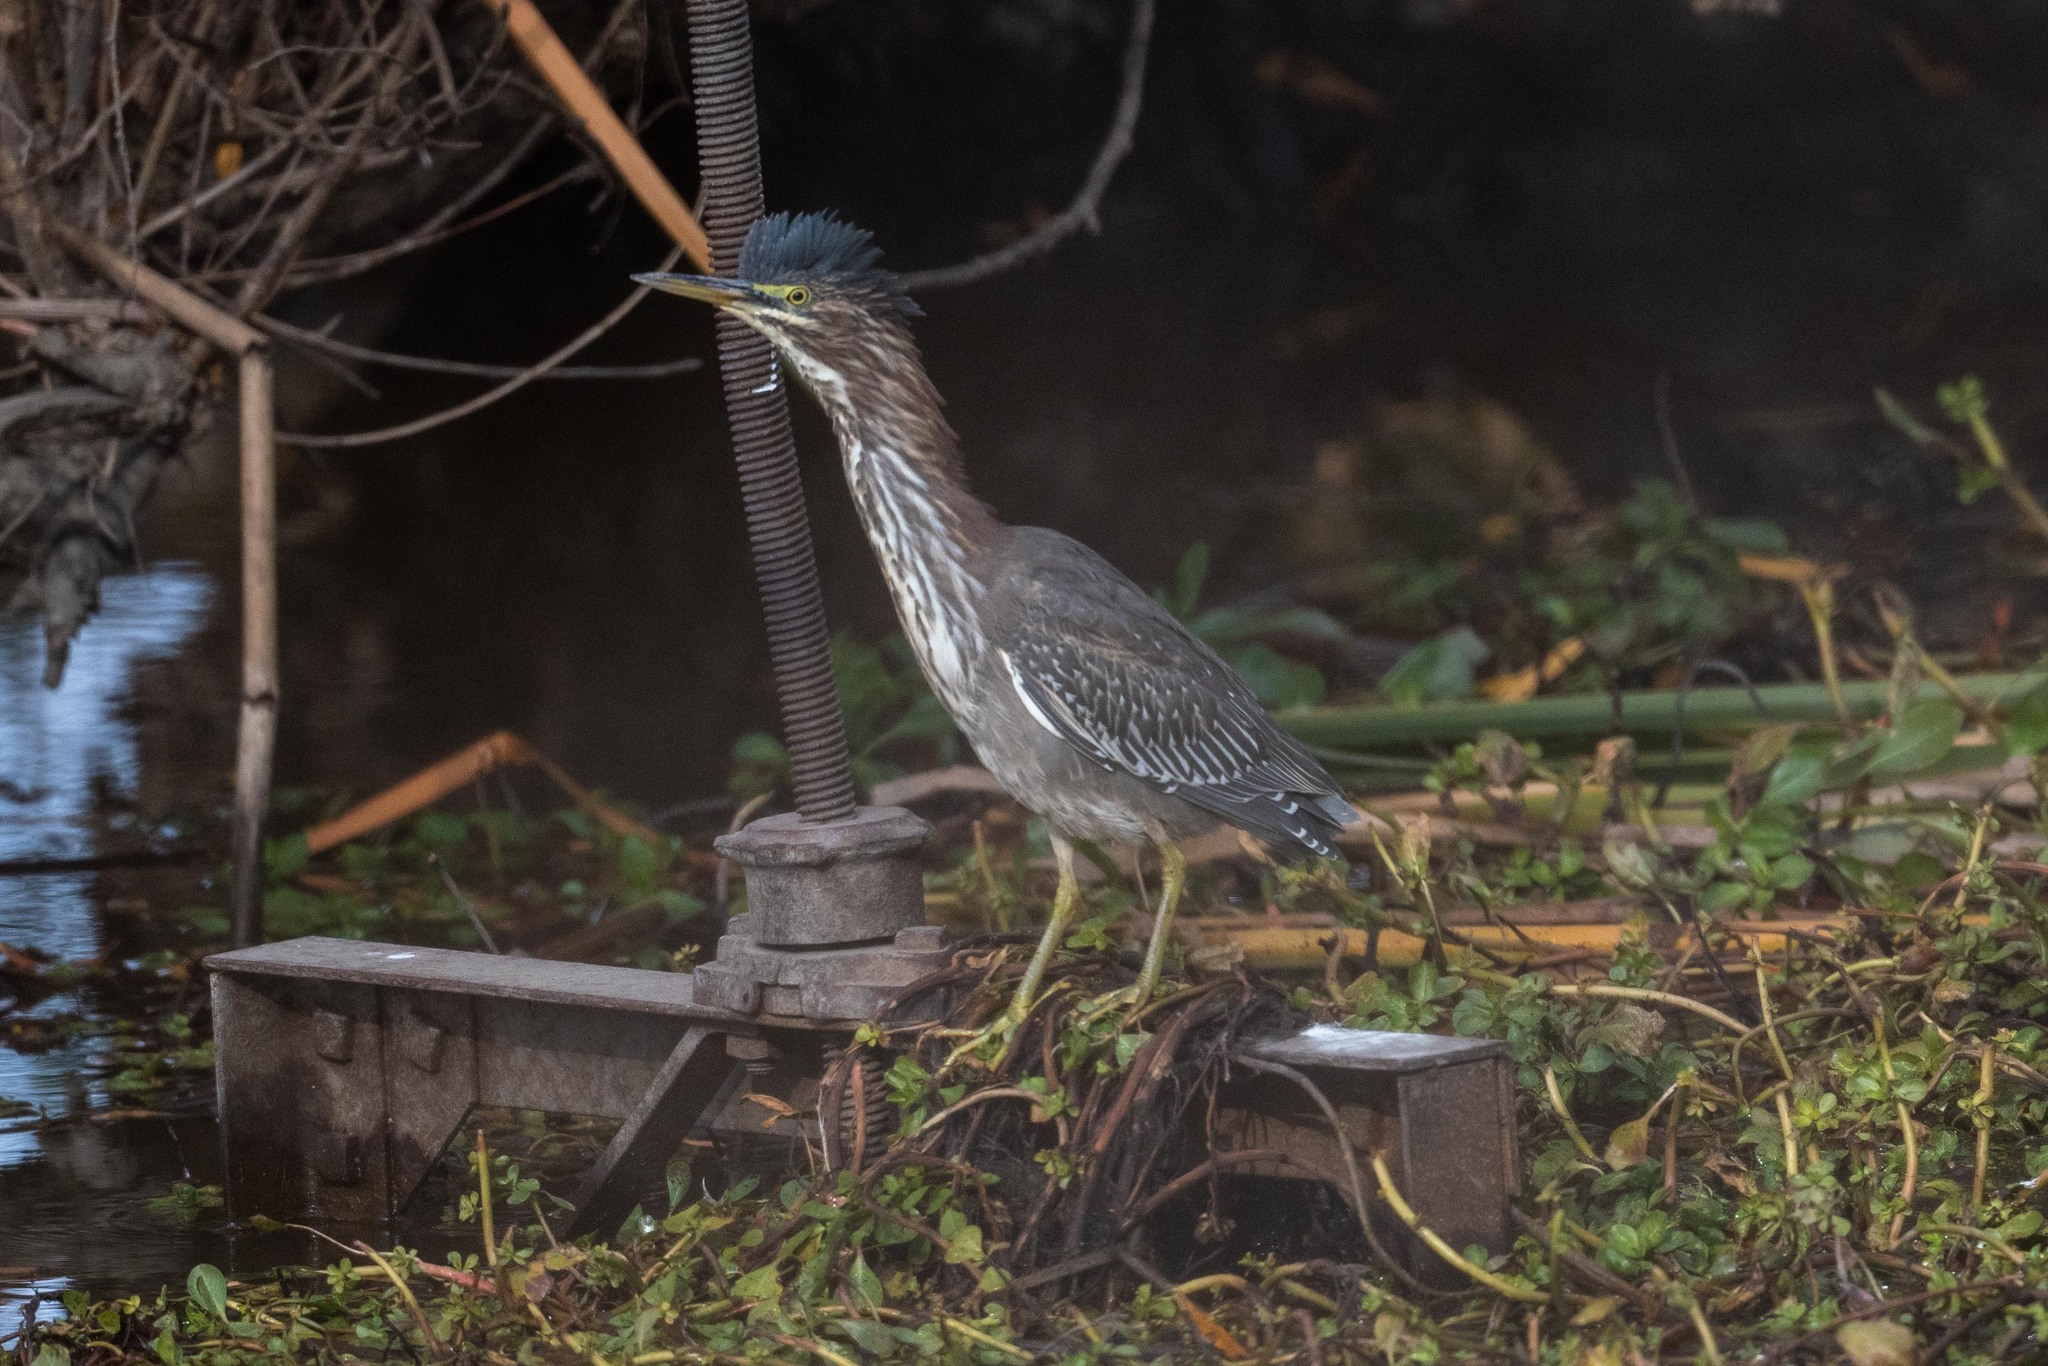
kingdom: Animalia
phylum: Chordata
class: Aves
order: Pelecaniformes
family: Ardeidae
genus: Butorides
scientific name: Butorides virescens
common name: Green heron
